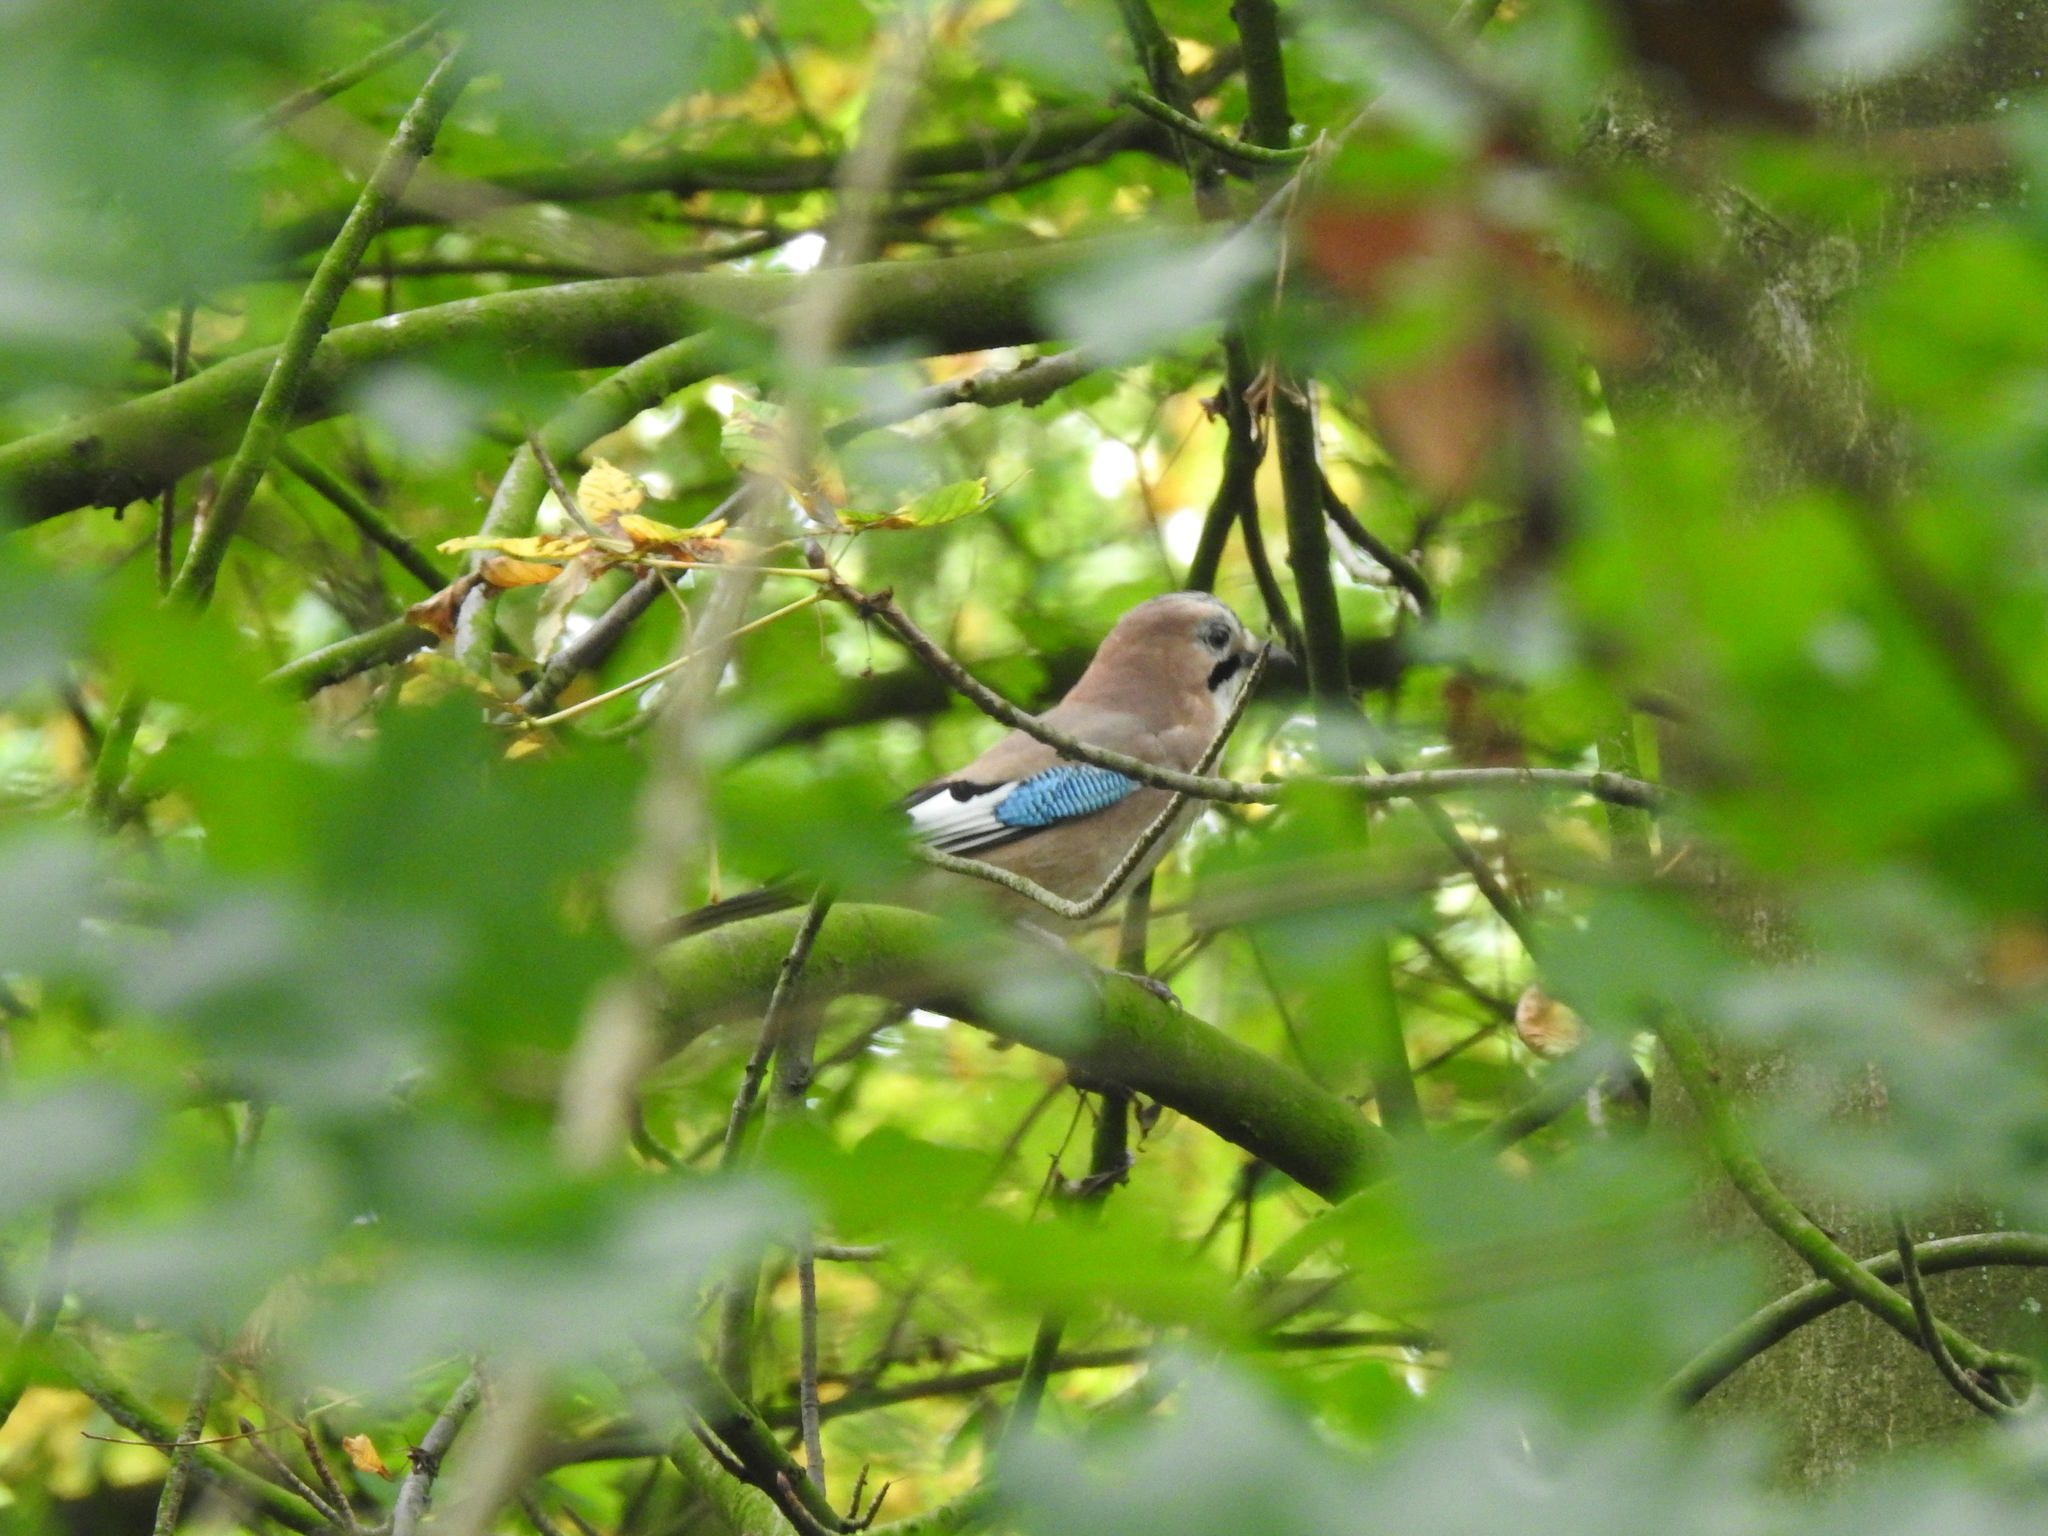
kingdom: Animalia
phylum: Chordata
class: Aves
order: Passeriformes
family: Corvidae
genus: Garrulus
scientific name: Garrulus glandarius
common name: Eurasian jay
